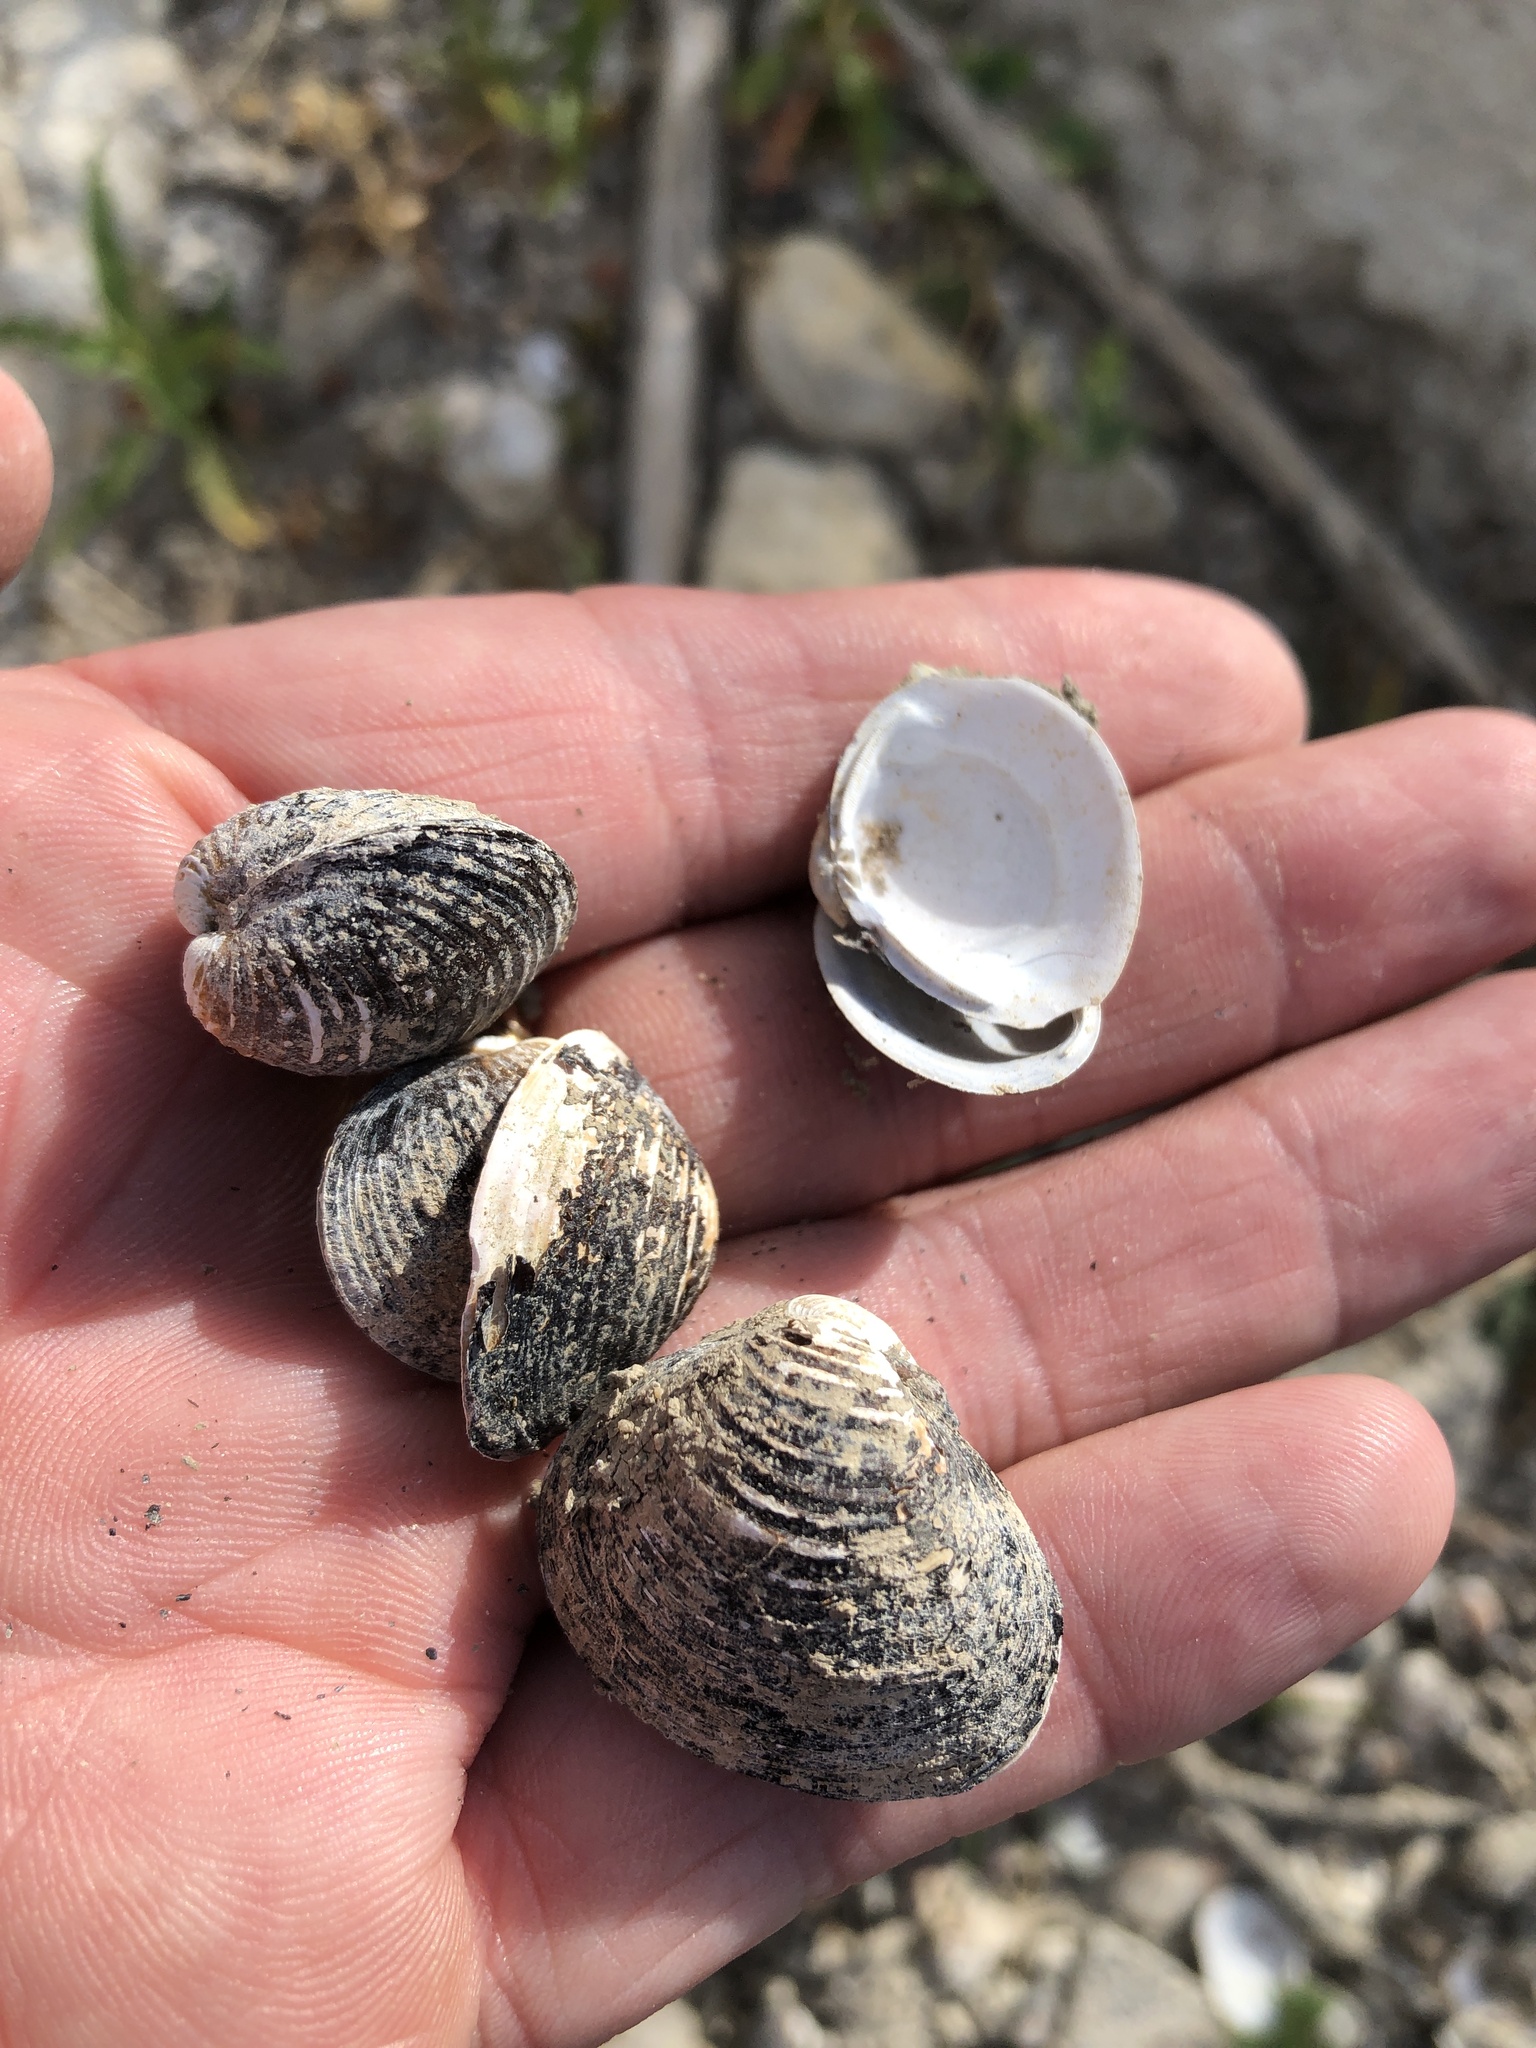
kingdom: Animalia
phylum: Mollusca
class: Bivalvia
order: Venerida
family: Cyrenidae
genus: Corbicula
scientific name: Corbicula fluminea
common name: Asian clam
